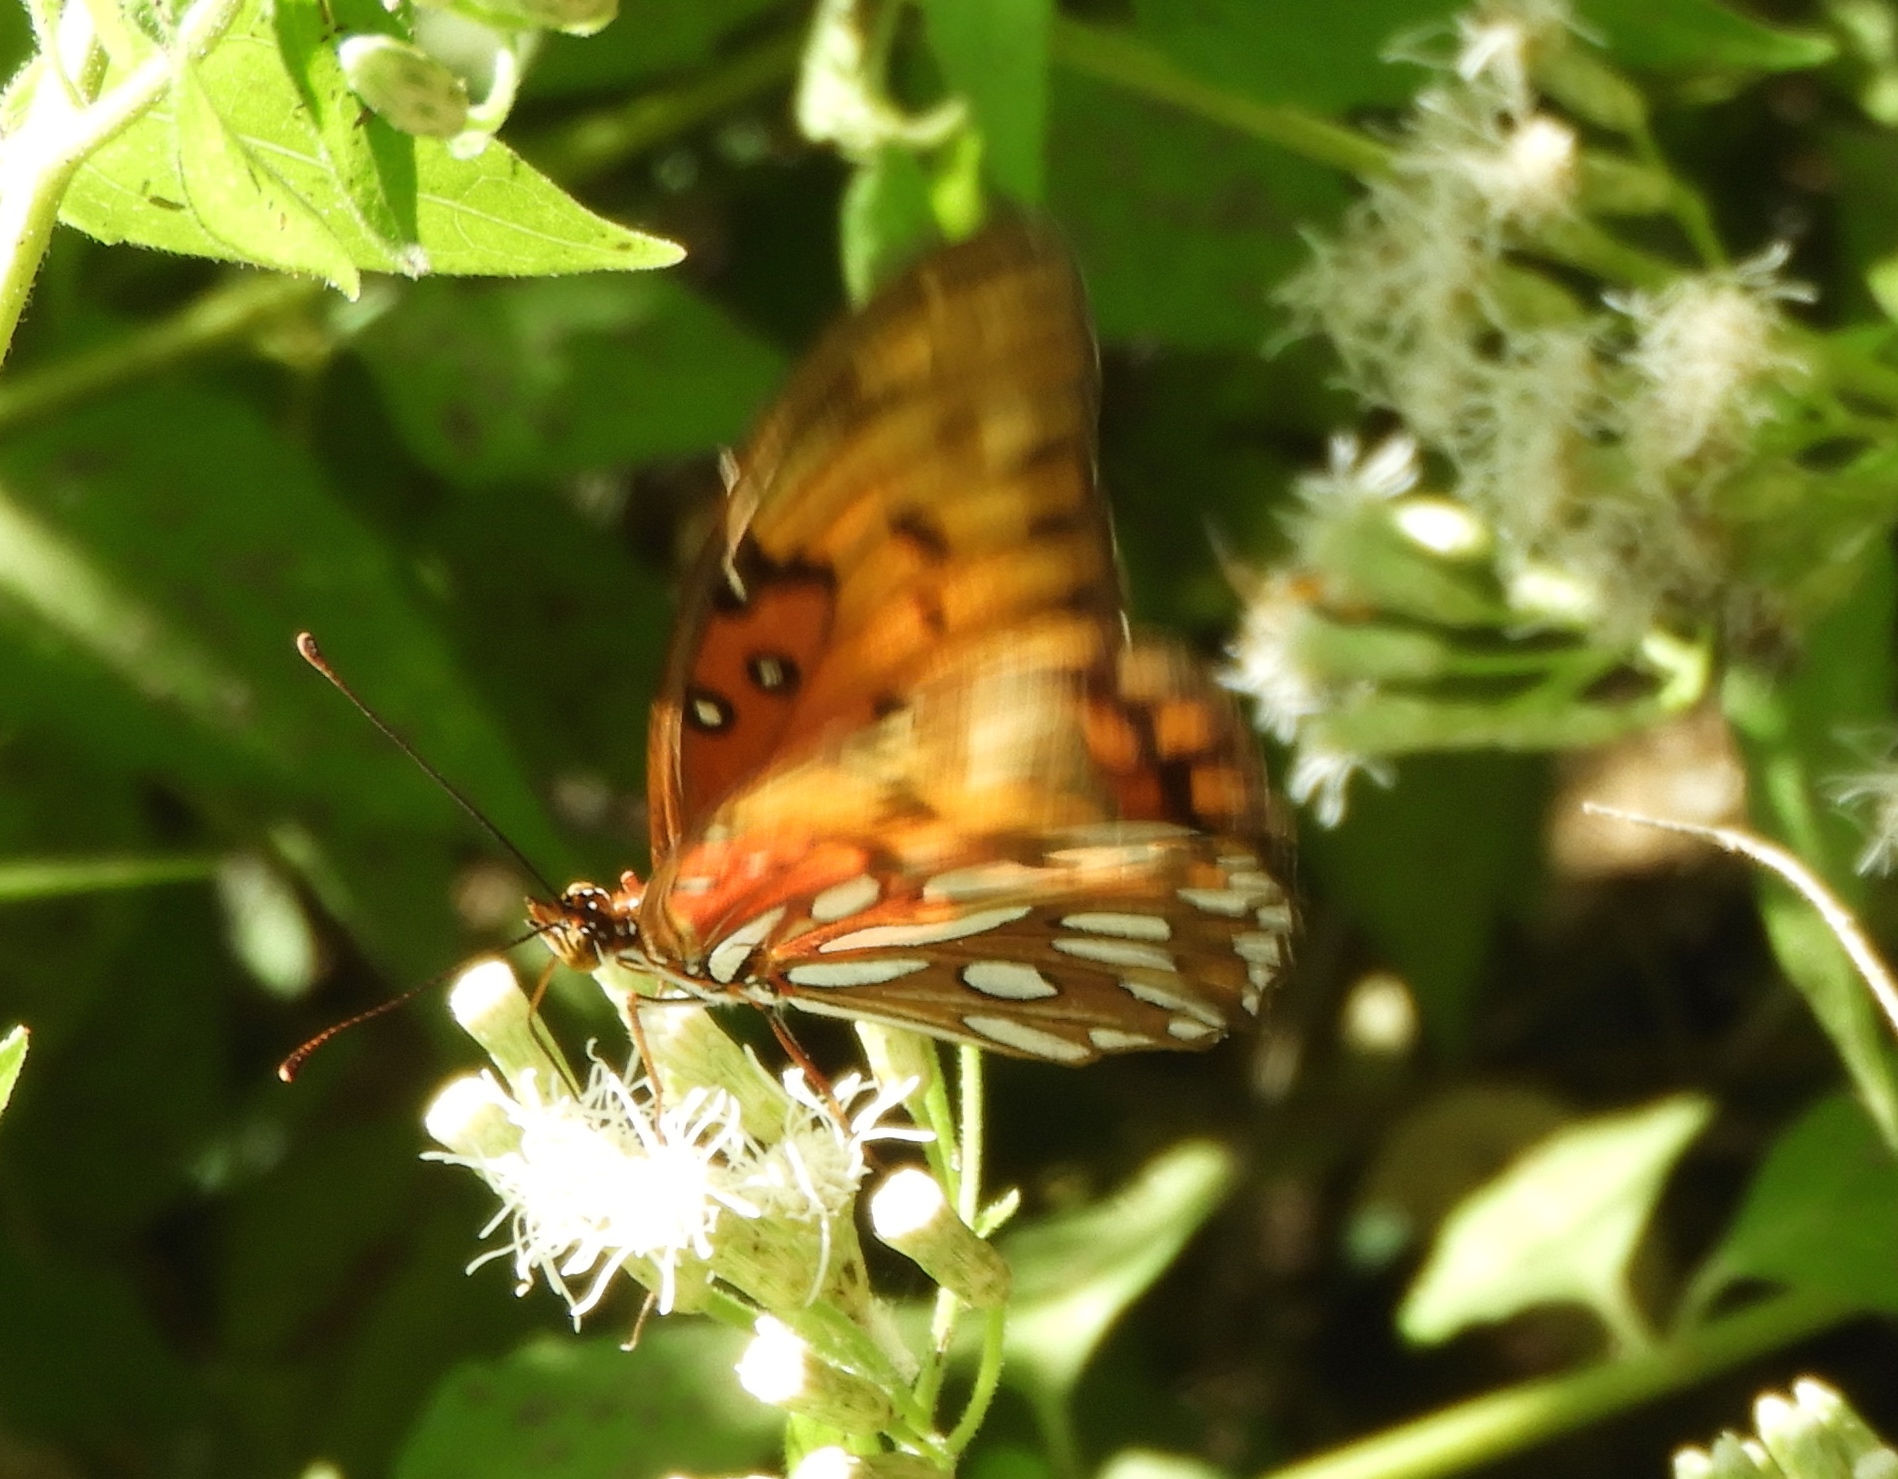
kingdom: Animalia
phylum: Arthropoda
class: Insecta
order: Lepidoptera
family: Nymphalidae
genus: Dione
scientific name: Dione vanillae
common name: Gulf fritillary
